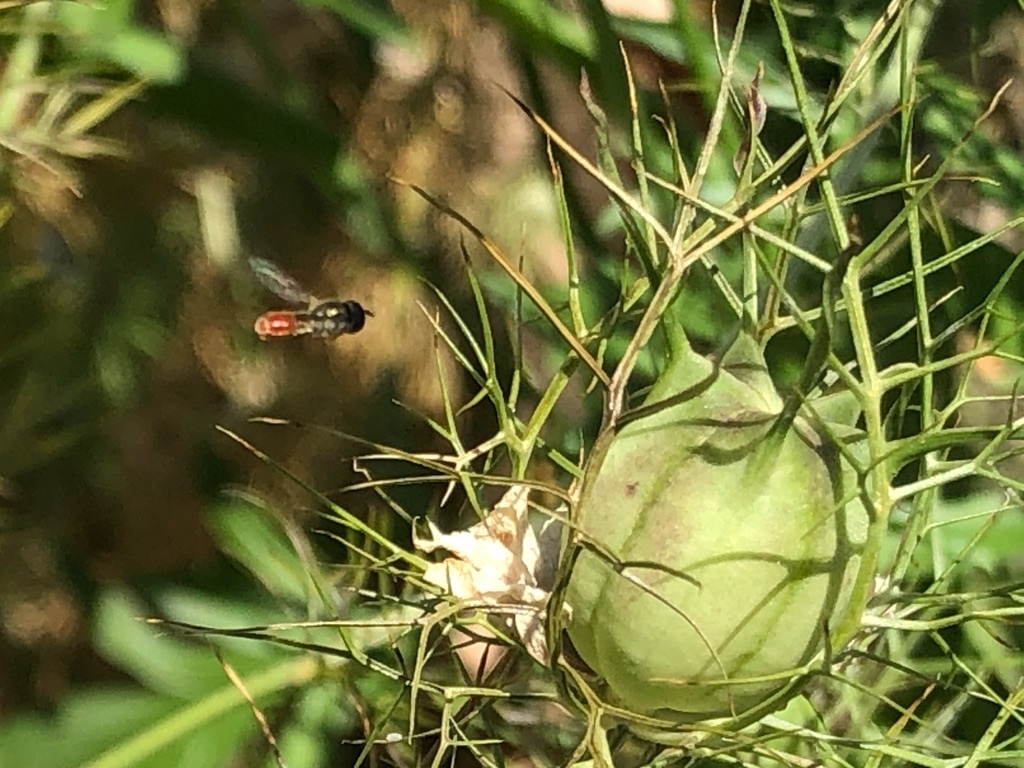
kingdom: Animalia
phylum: Arthropoda
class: Insecta
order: Diptera
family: Syrphidae
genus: Paragus
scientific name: Paragus haemorrhous
